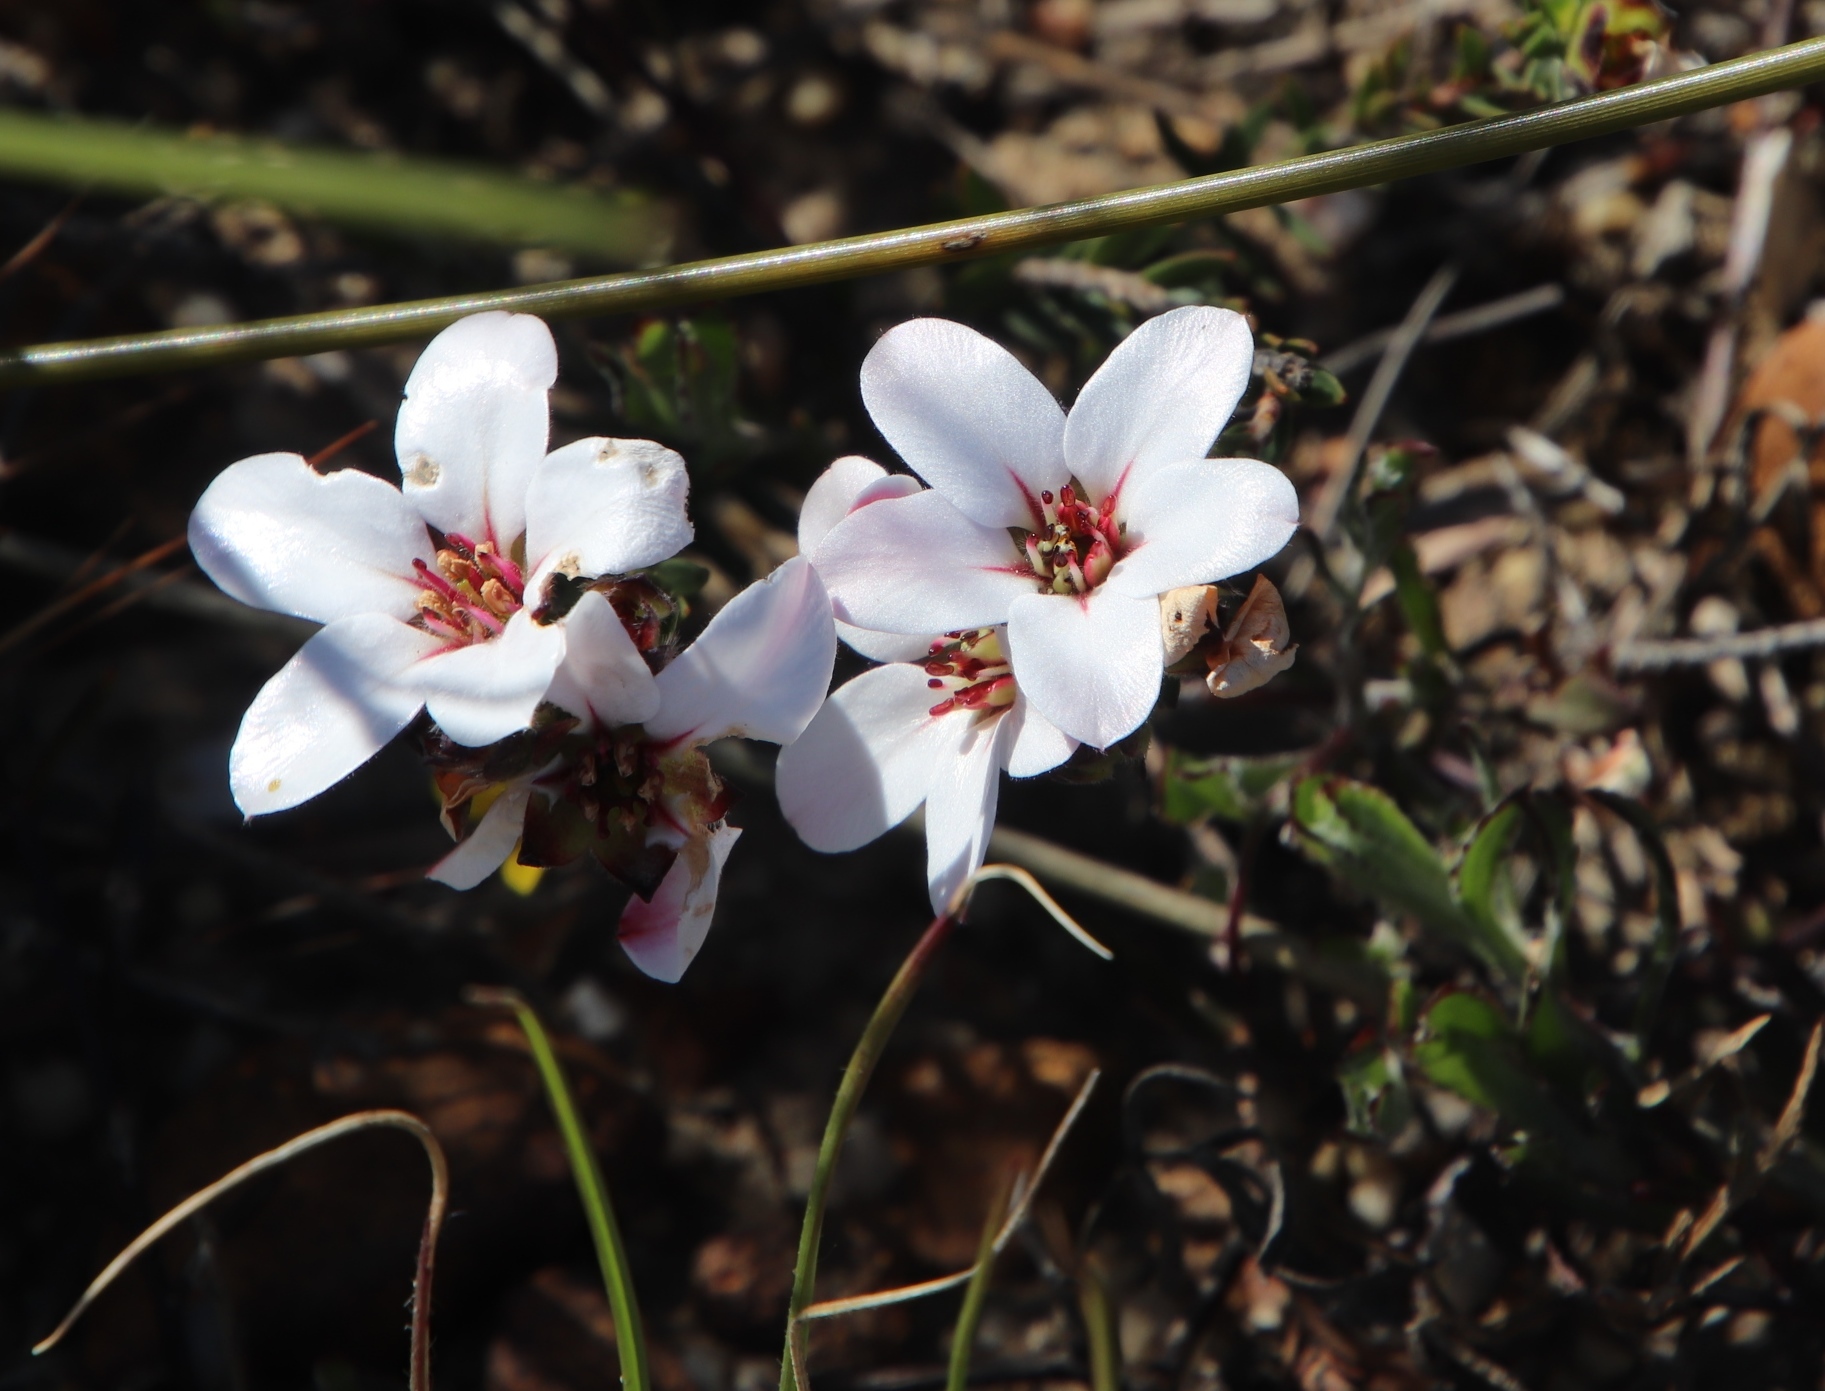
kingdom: Plantae
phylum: Tracheophyta
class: Magnoliopsida
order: Sapindales
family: Rutaceae
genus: Adenandra
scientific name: Adenandra villosa
